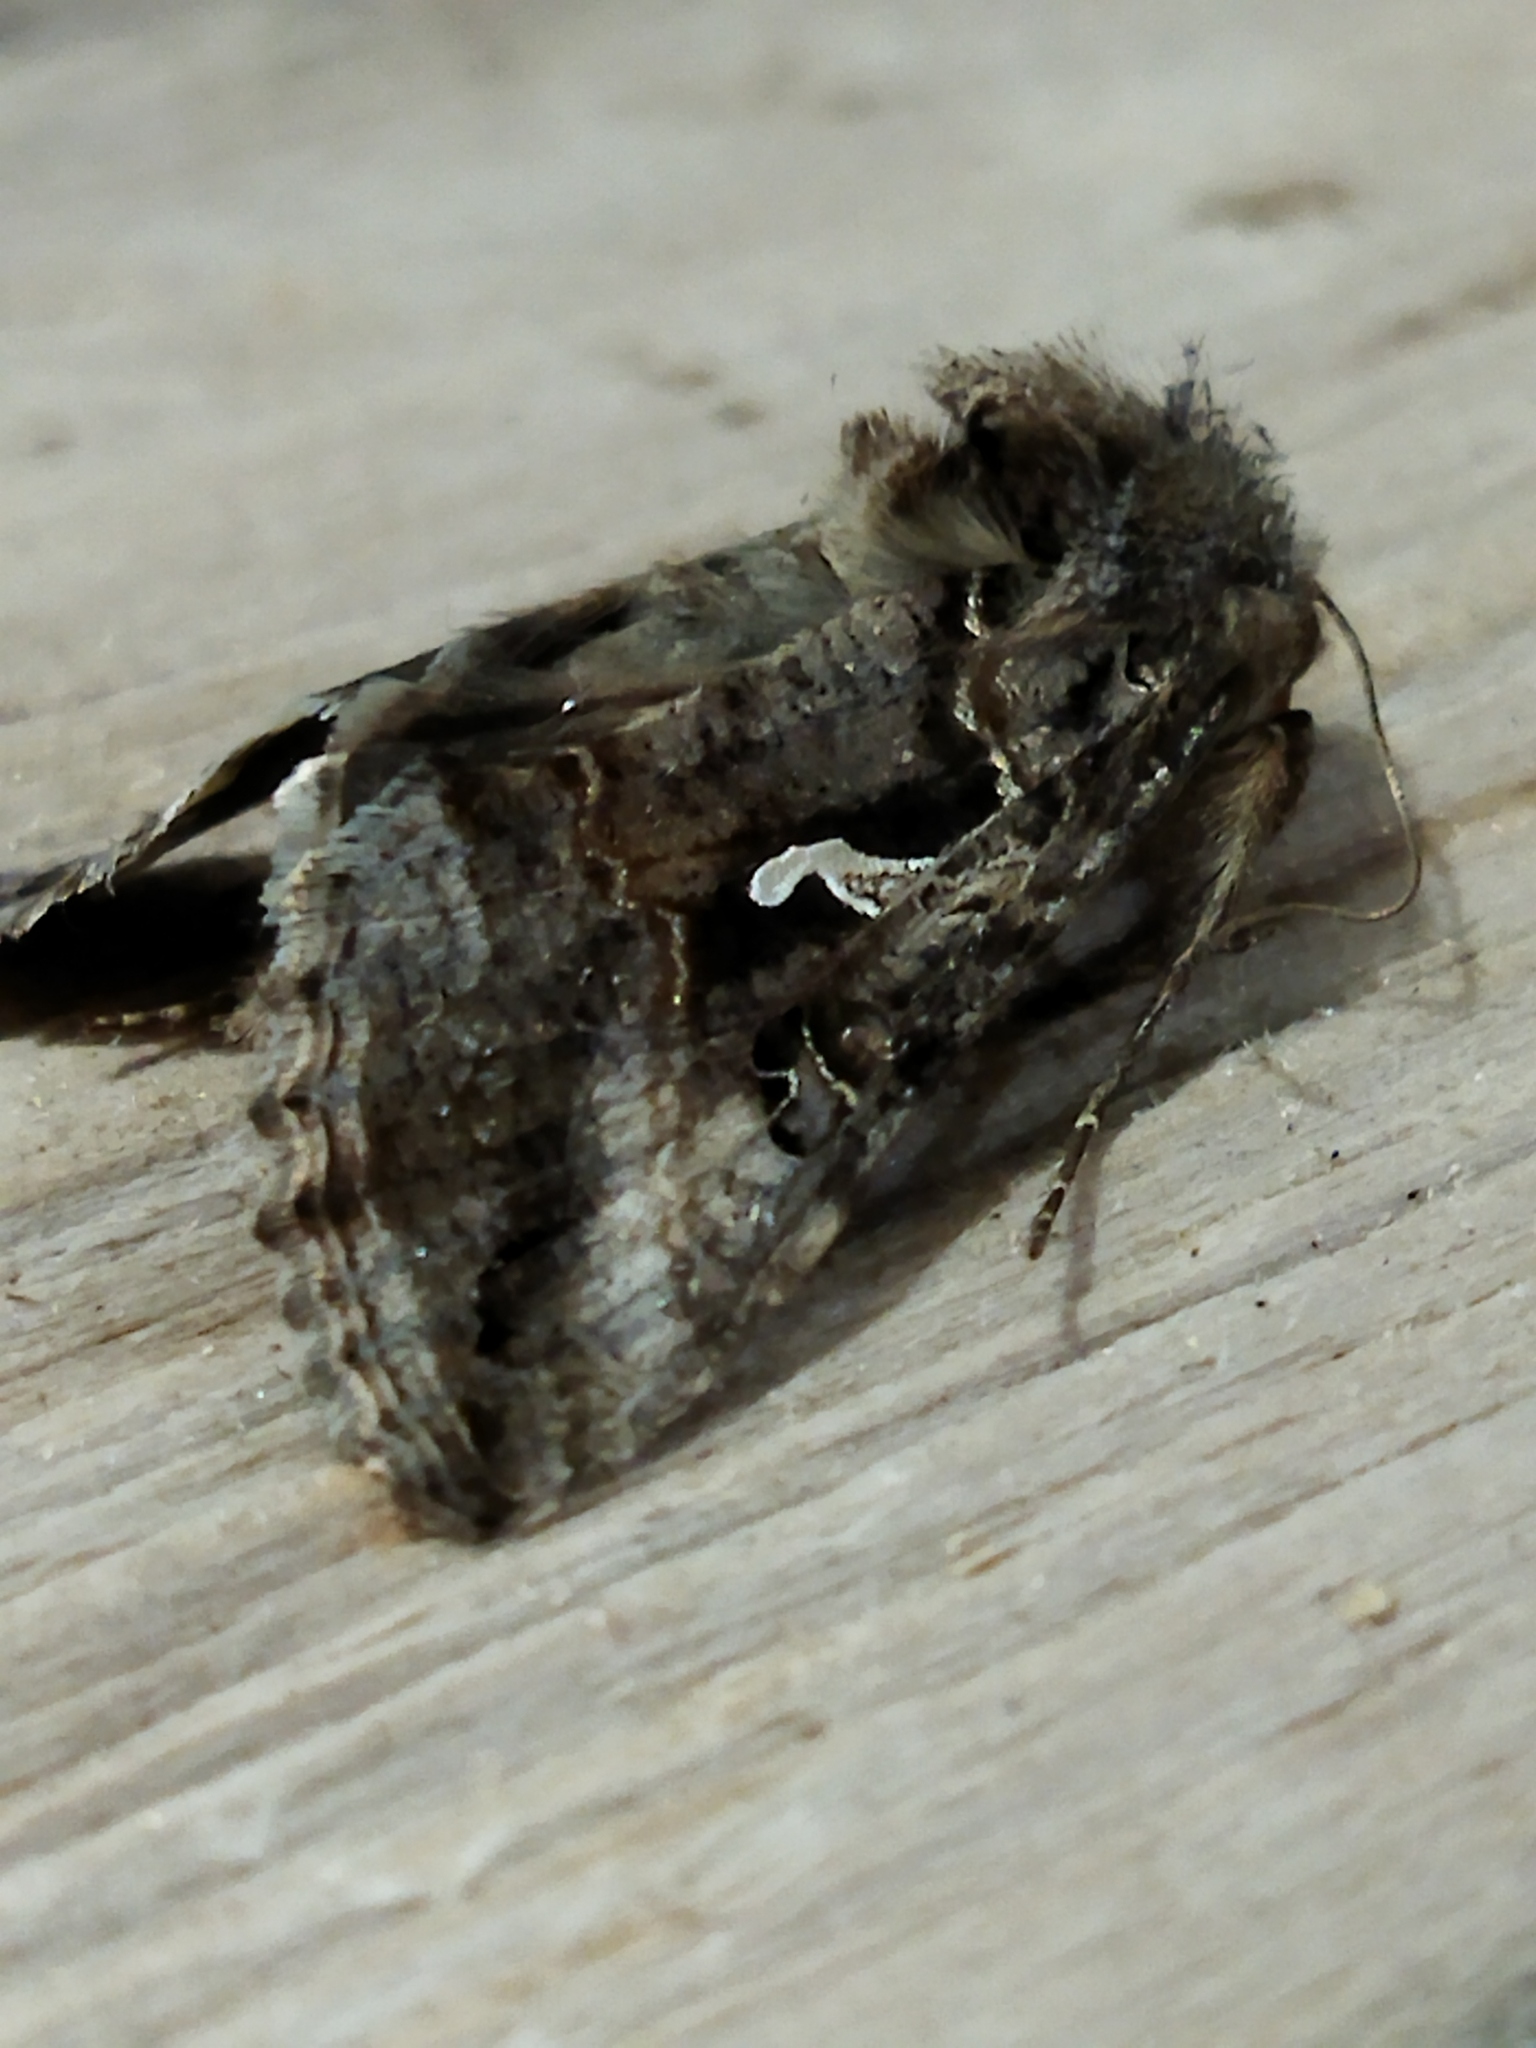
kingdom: Animalia
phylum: Arthropoda
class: Insecta
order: Lepidoptera
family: Noctuidae
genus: Autographa
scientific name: Autographa gamma
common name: Silver y
